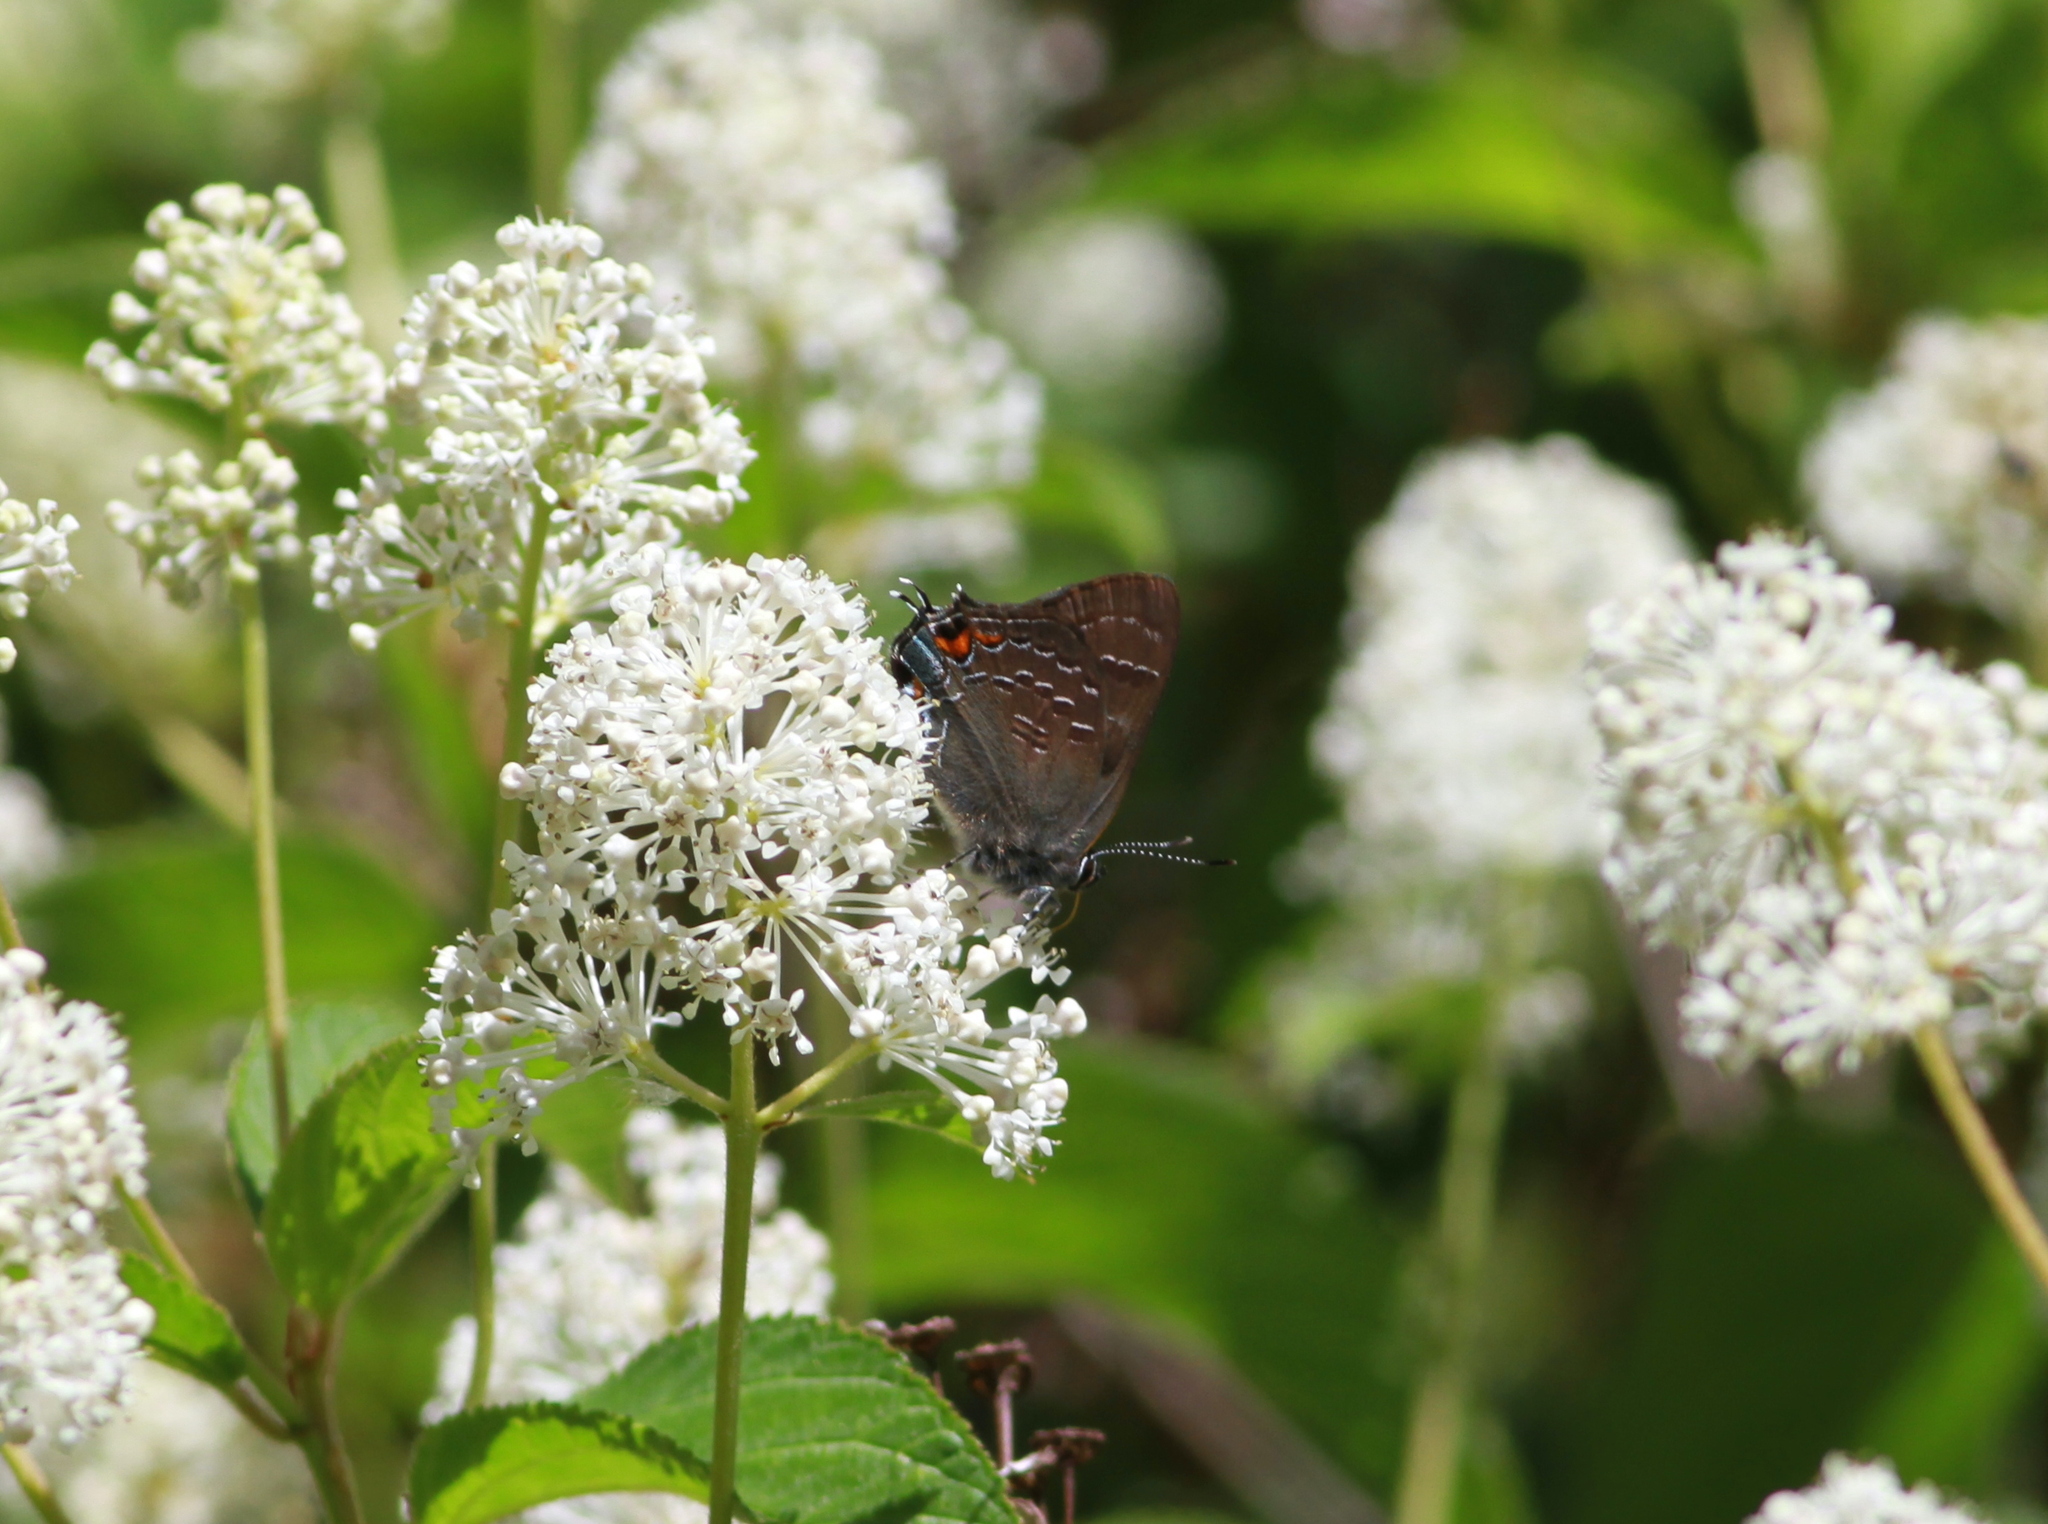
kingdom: Animalia
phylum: Arthropoda
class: Insecta
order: Lepidoptera
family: Lycaenidae
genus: Satyrium
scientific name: Satyrium calanus
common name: Banded hairstreak
